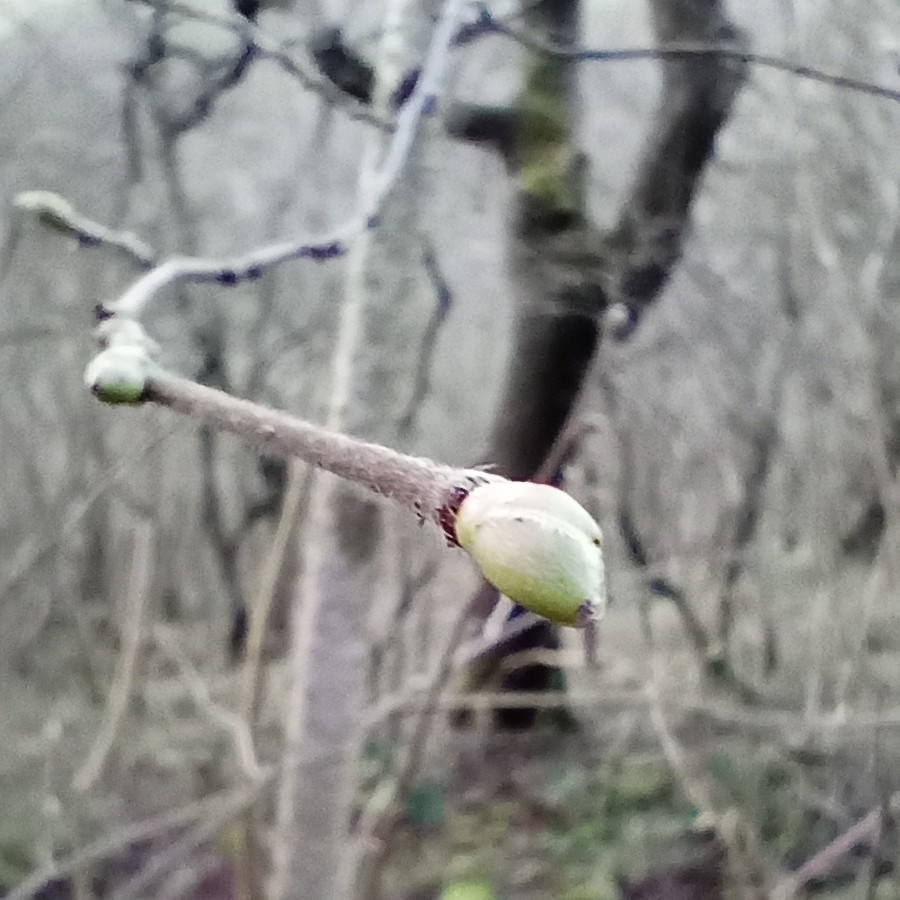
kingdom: Plantae
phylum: Tracheophyta
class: Magnoliopsida
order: Fagales
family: Betulaceae
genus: Corylus
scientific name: Corylus avellana
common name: European hazel
